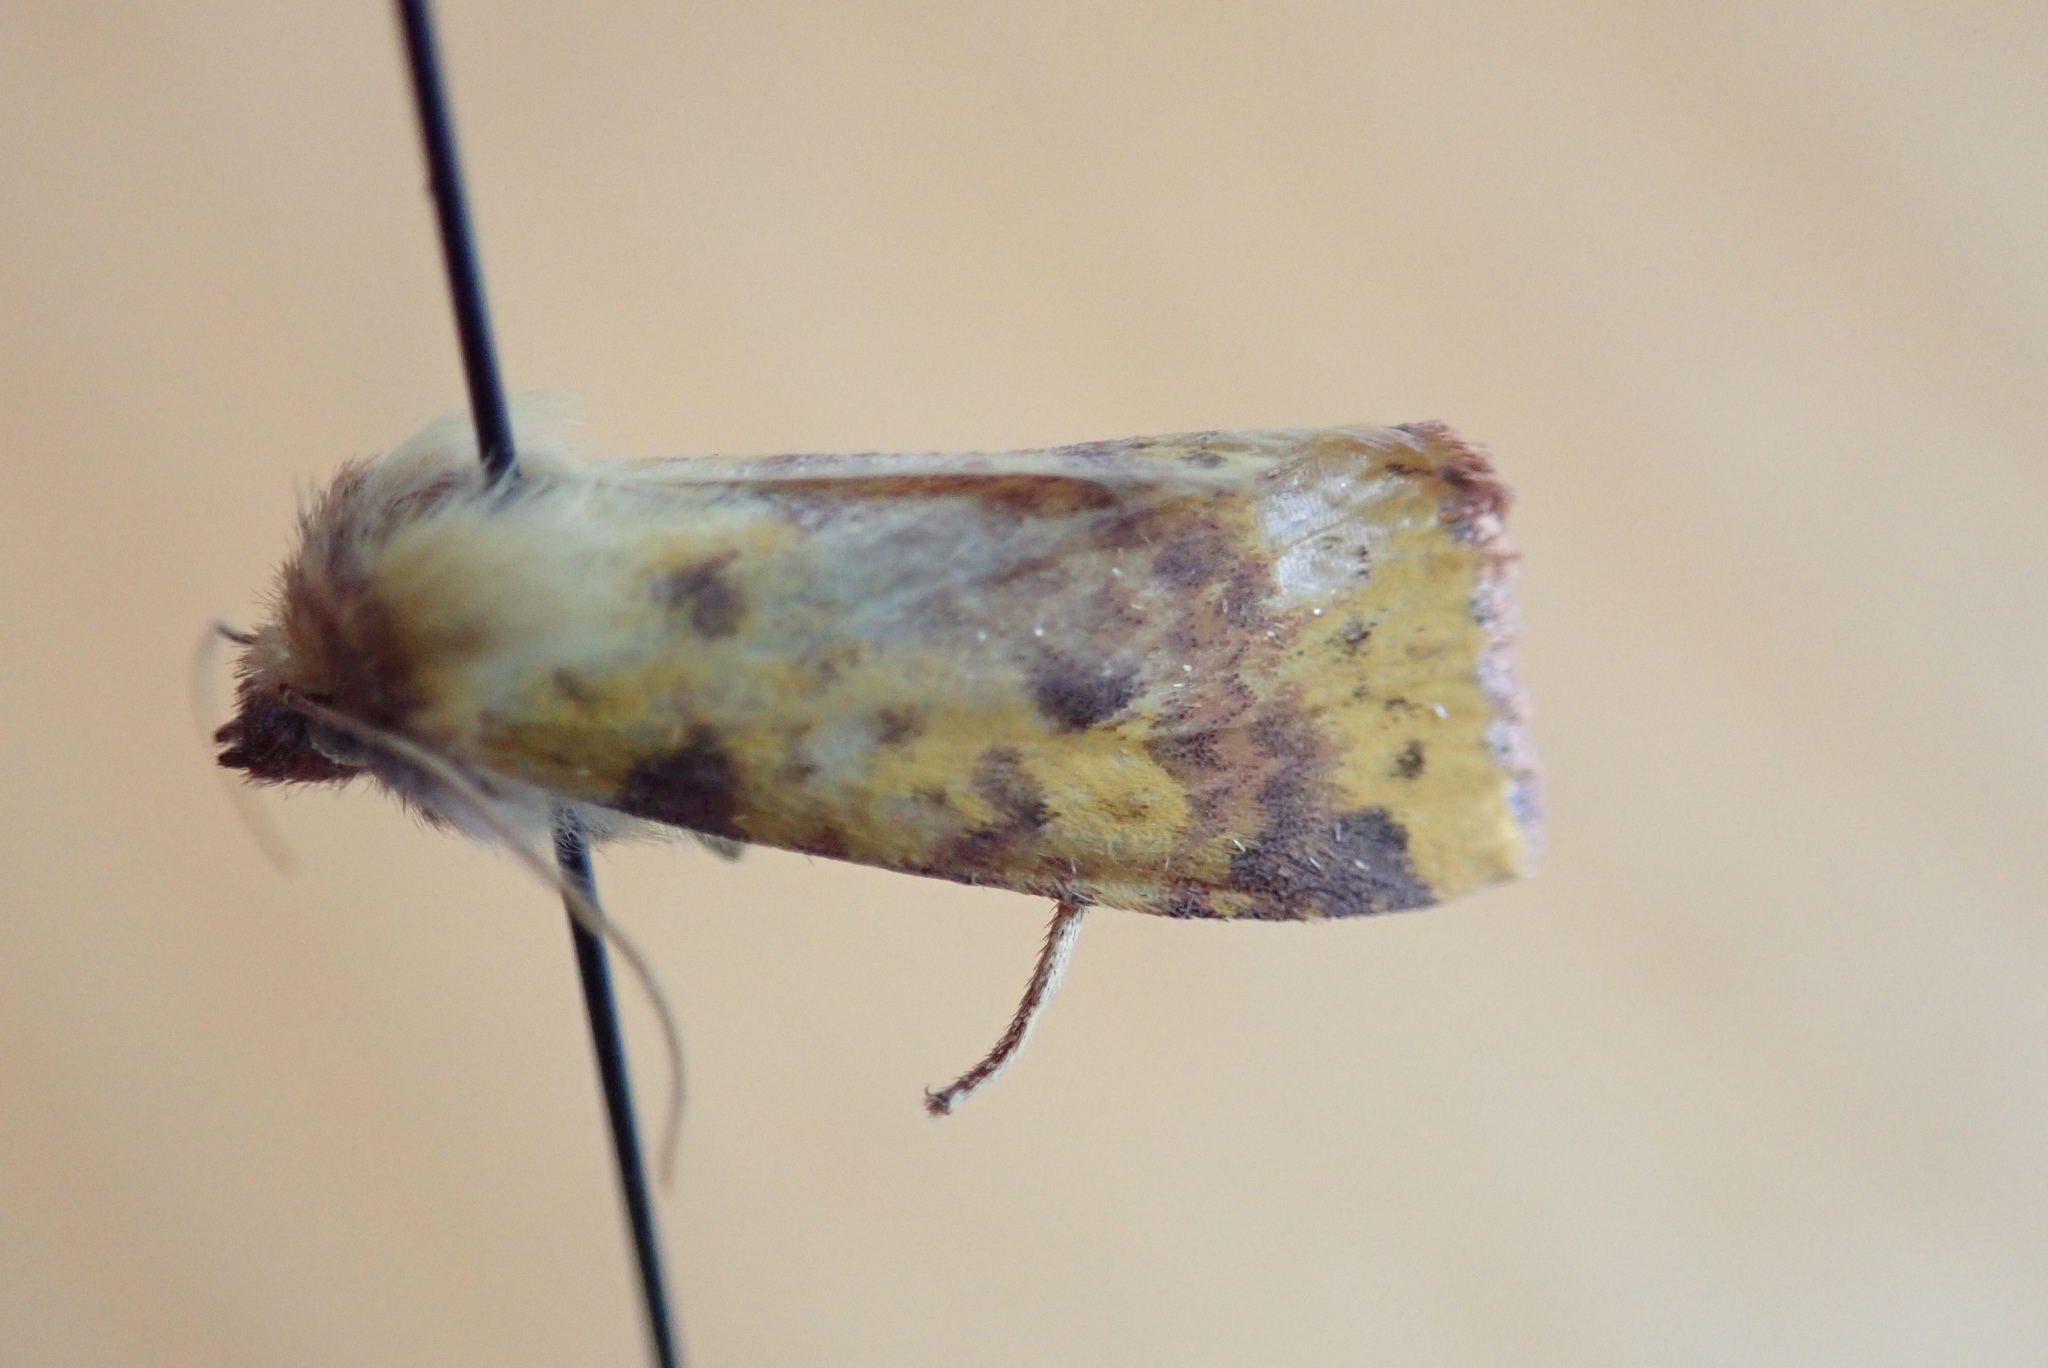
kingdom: Animalia
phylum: Arthropoda
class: Insecta
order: Lepidoptera
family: Noctuidae
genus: Xanthia
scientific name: Xanthia tatago
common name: Pink-banded sallow
